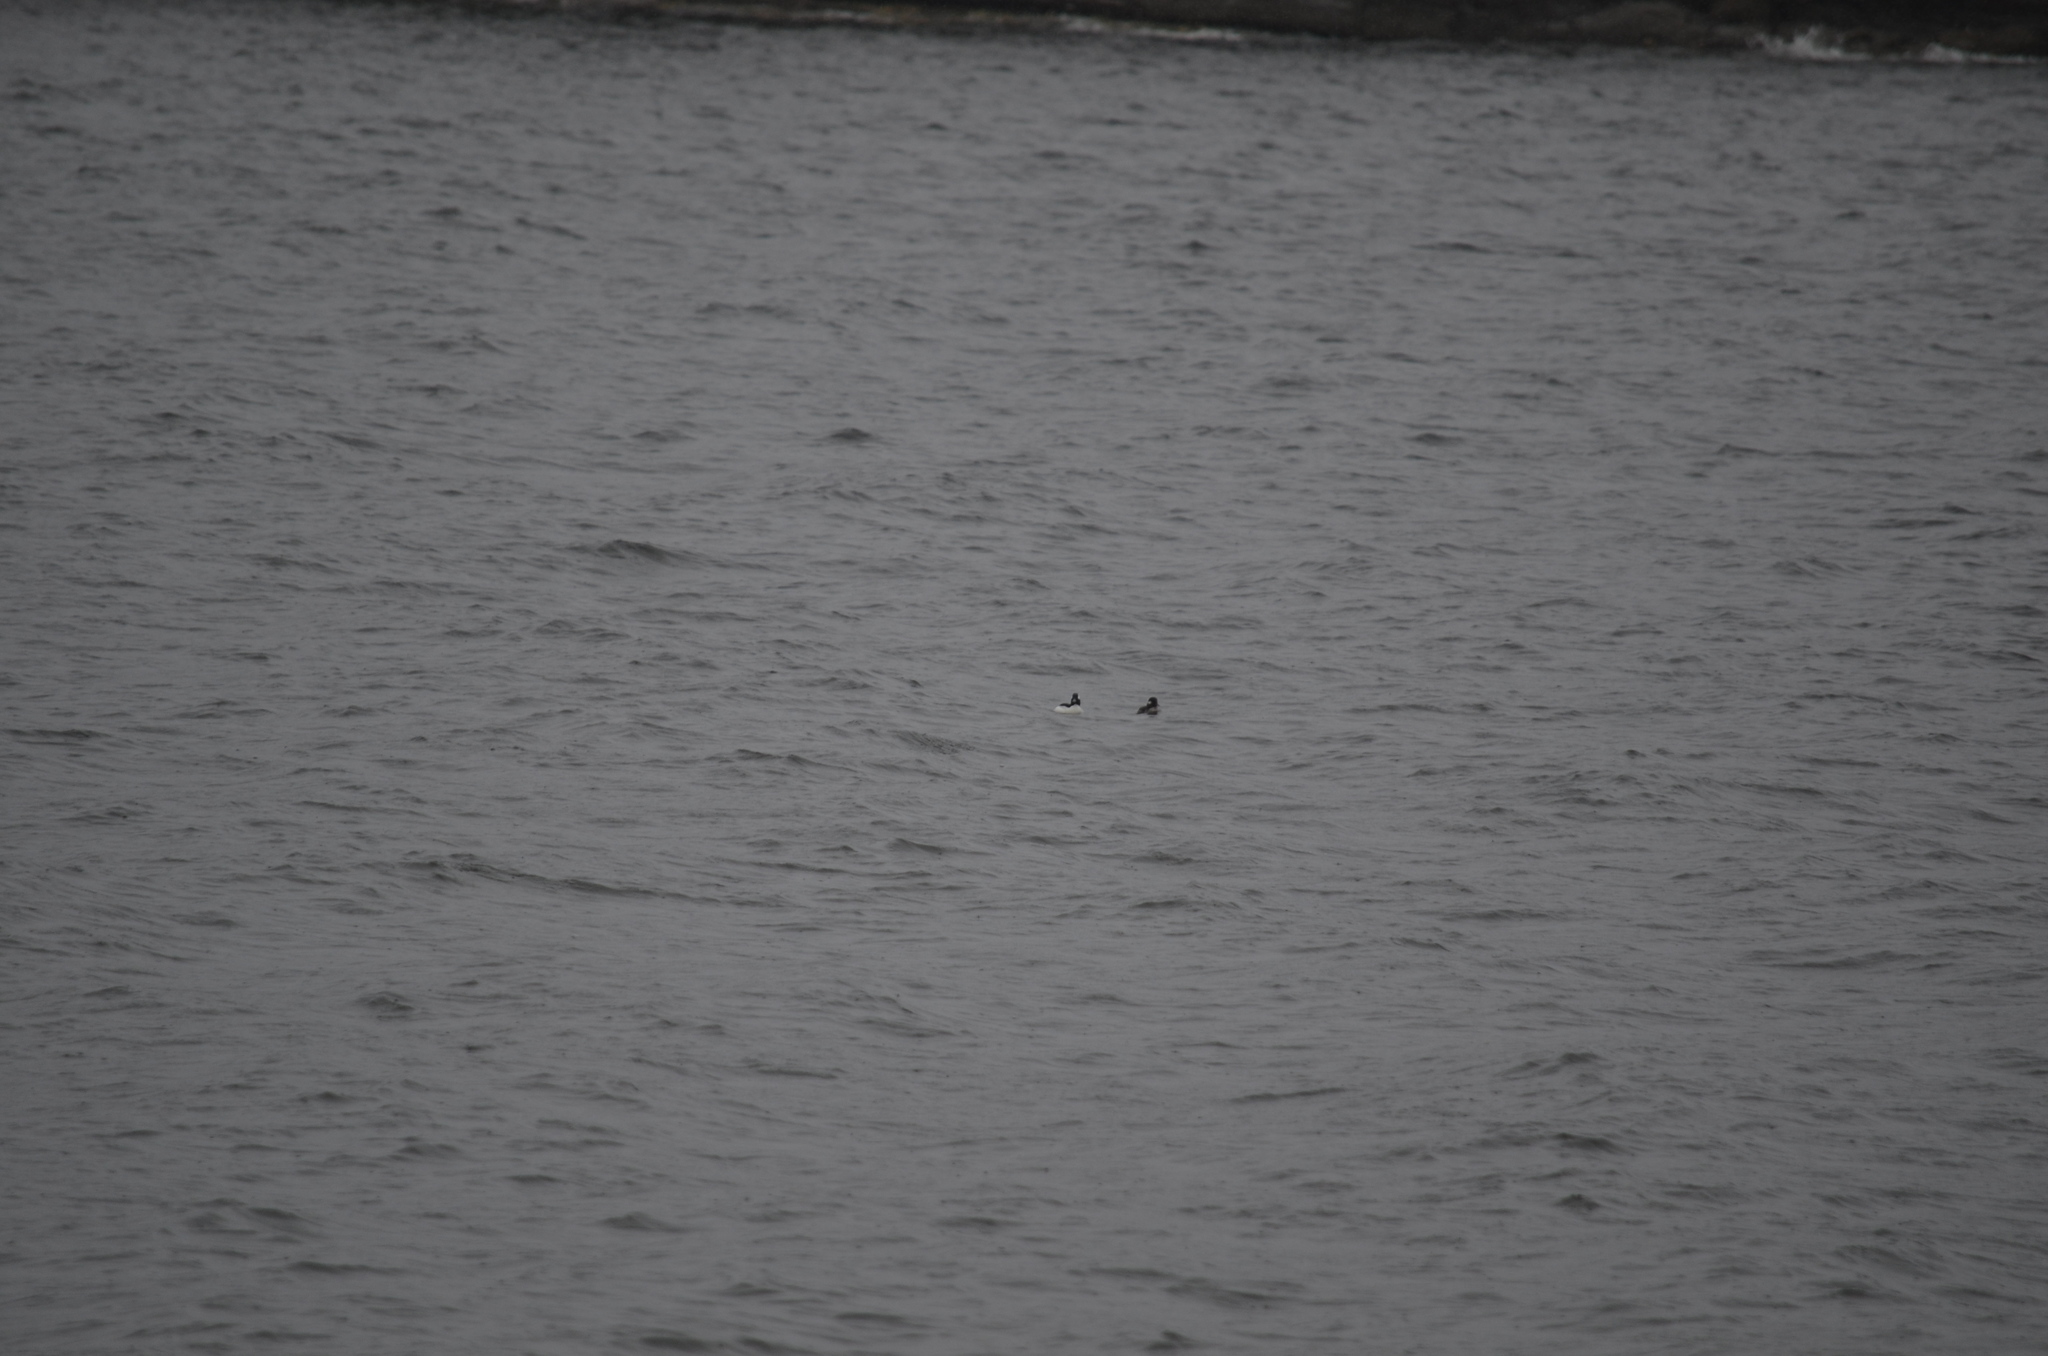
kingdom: Animalia
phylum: Chordata
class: Aves
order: Anseriformes
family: Anatidae
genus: Bucephala
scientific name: Bucephala albeola
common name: Bufflehead
